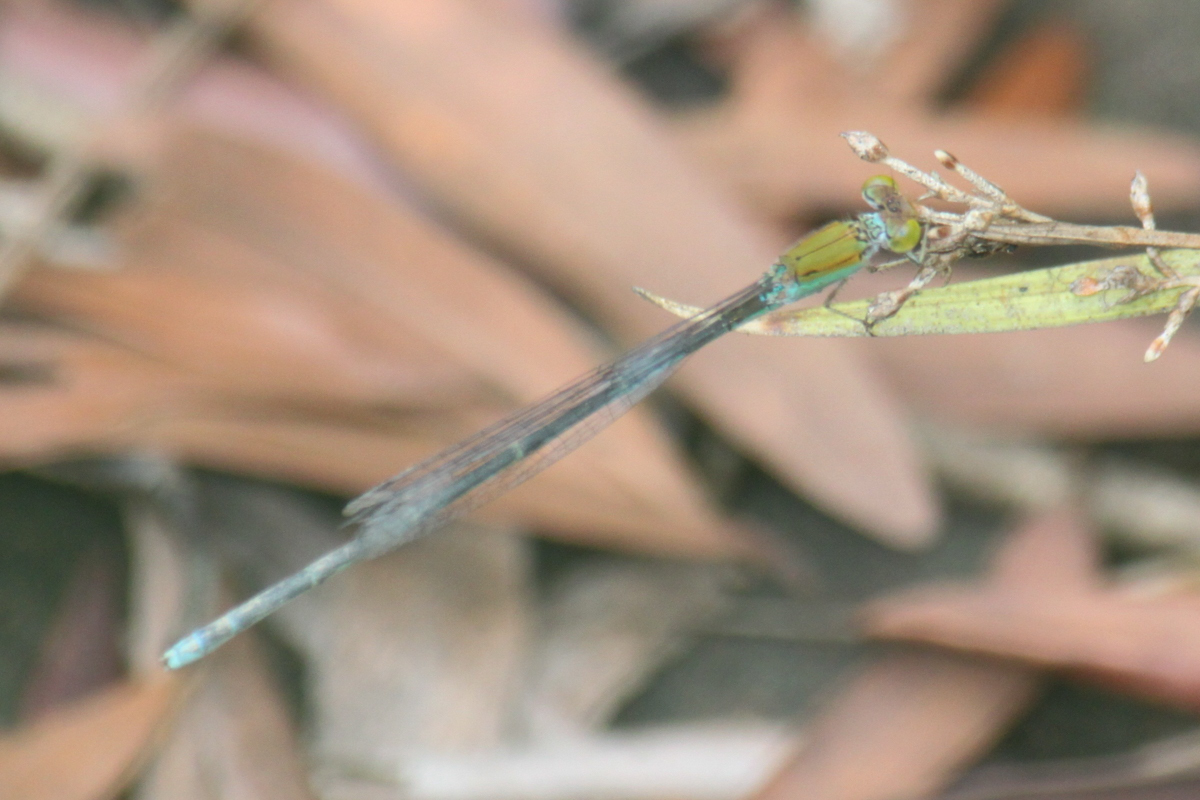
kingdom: Animalia
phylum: Arthropoda
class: Insecta
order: Odonata
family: Coenagrionidae
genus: Pseudagrion
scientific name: Pseudagrion rubriceps
